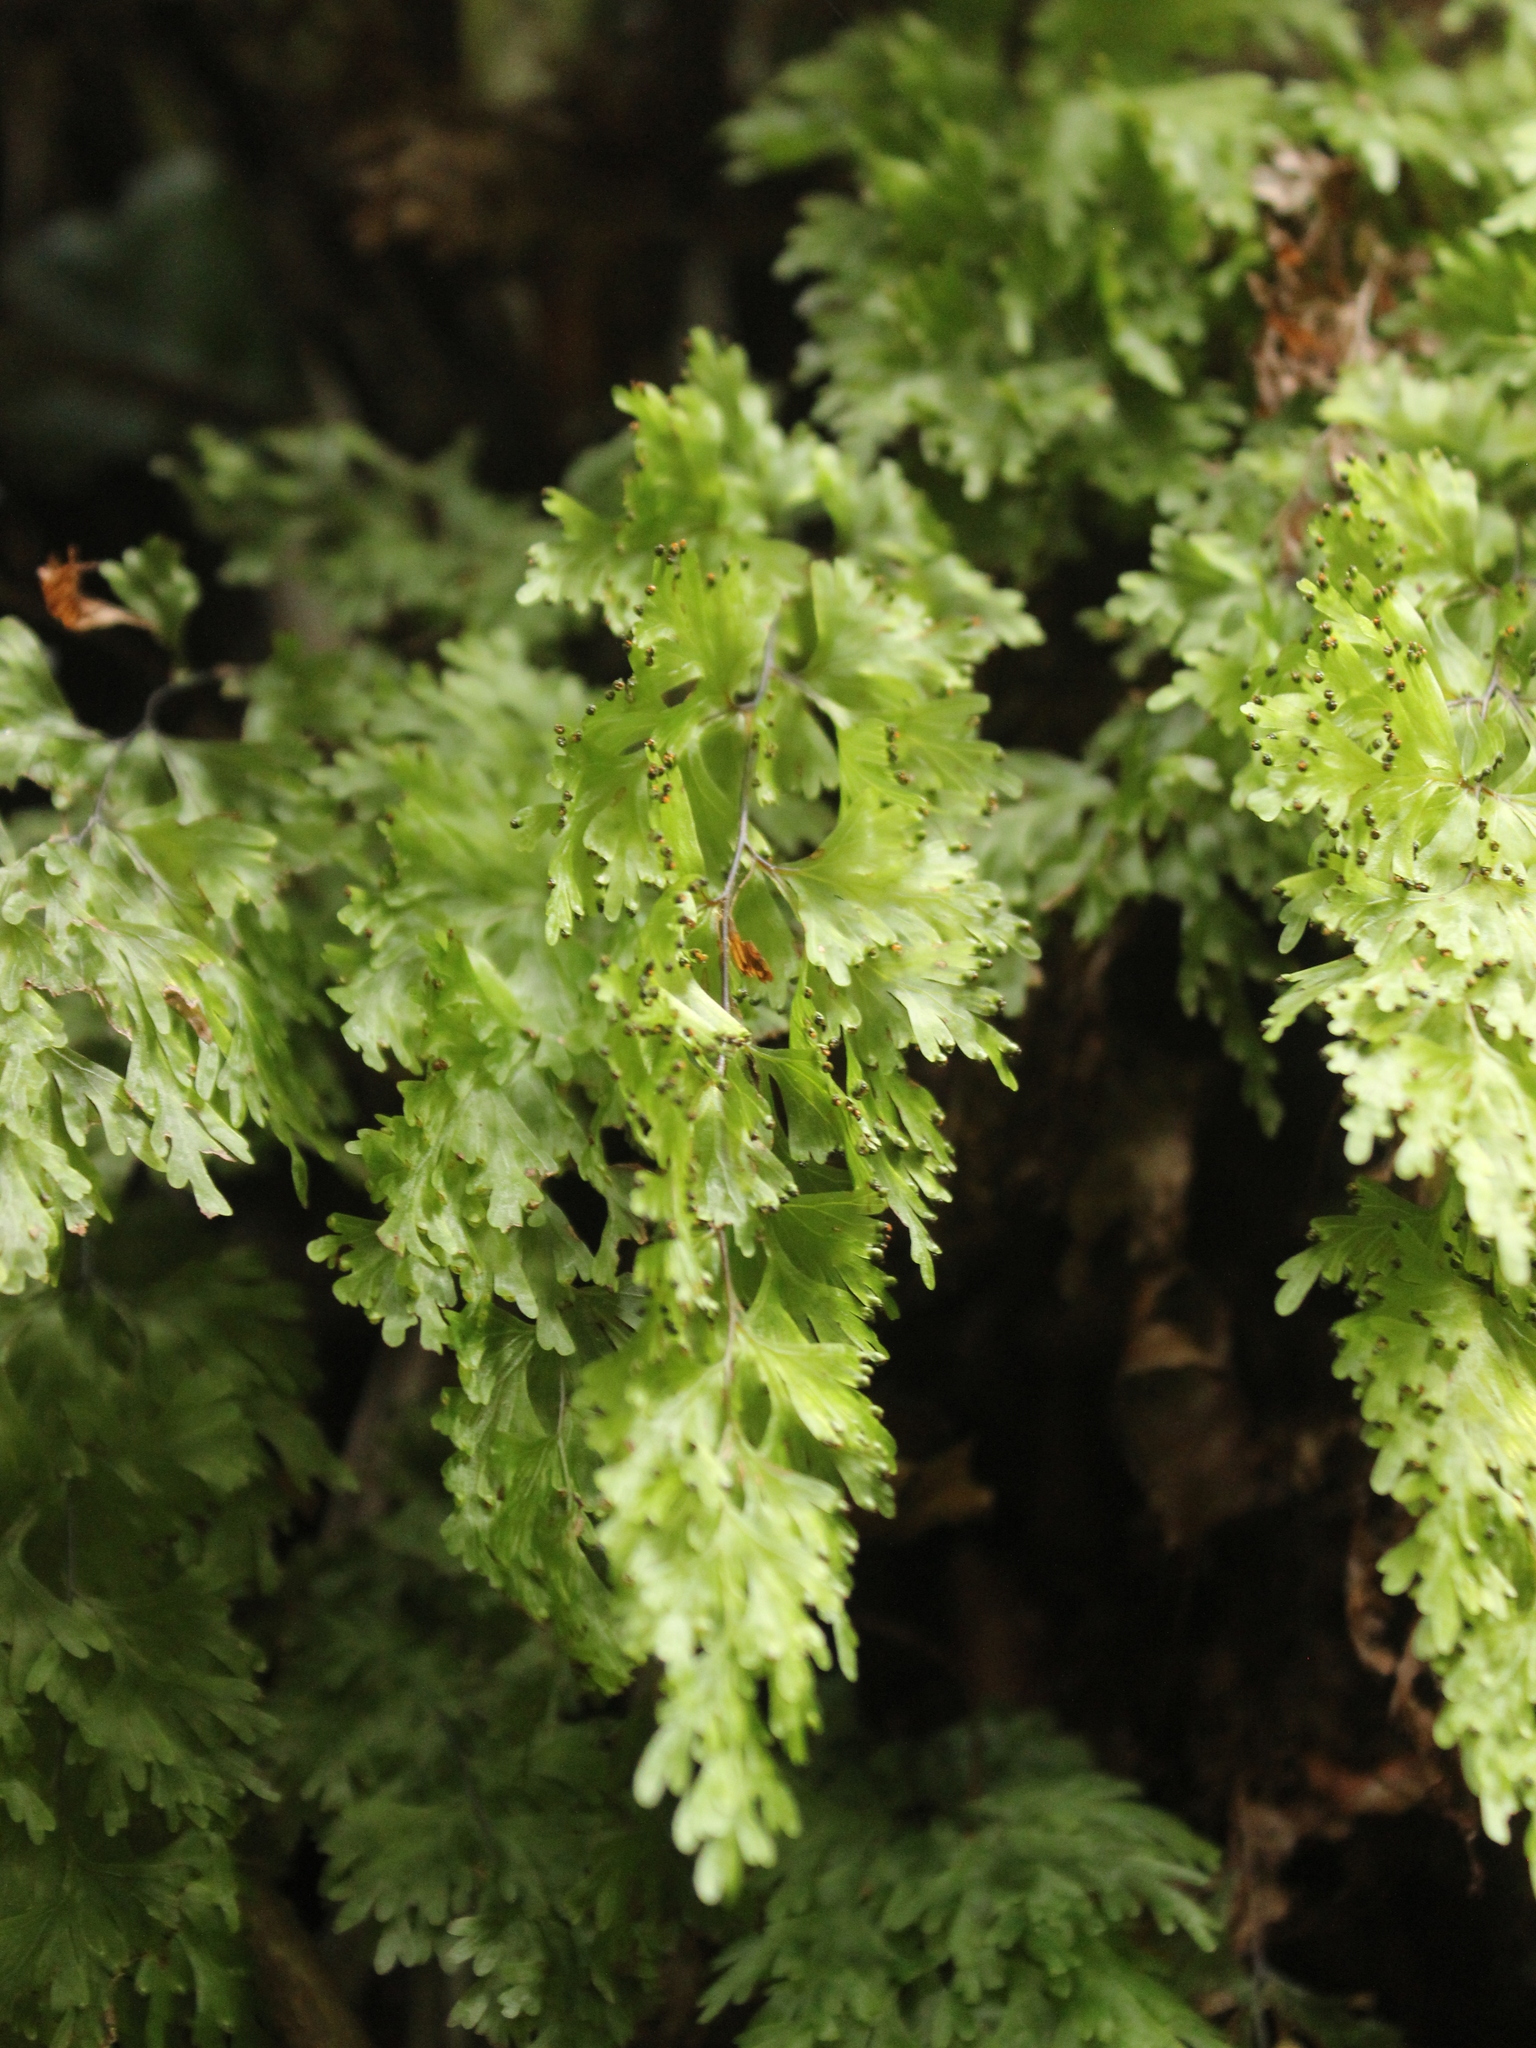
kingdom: Plantae
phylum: Tracheophyta
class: Polypodiopsida
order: Hymenophyllales
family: Hymenophyllaceae
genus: Hymenophyllum
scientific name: Hymenophyllum flabellatum
